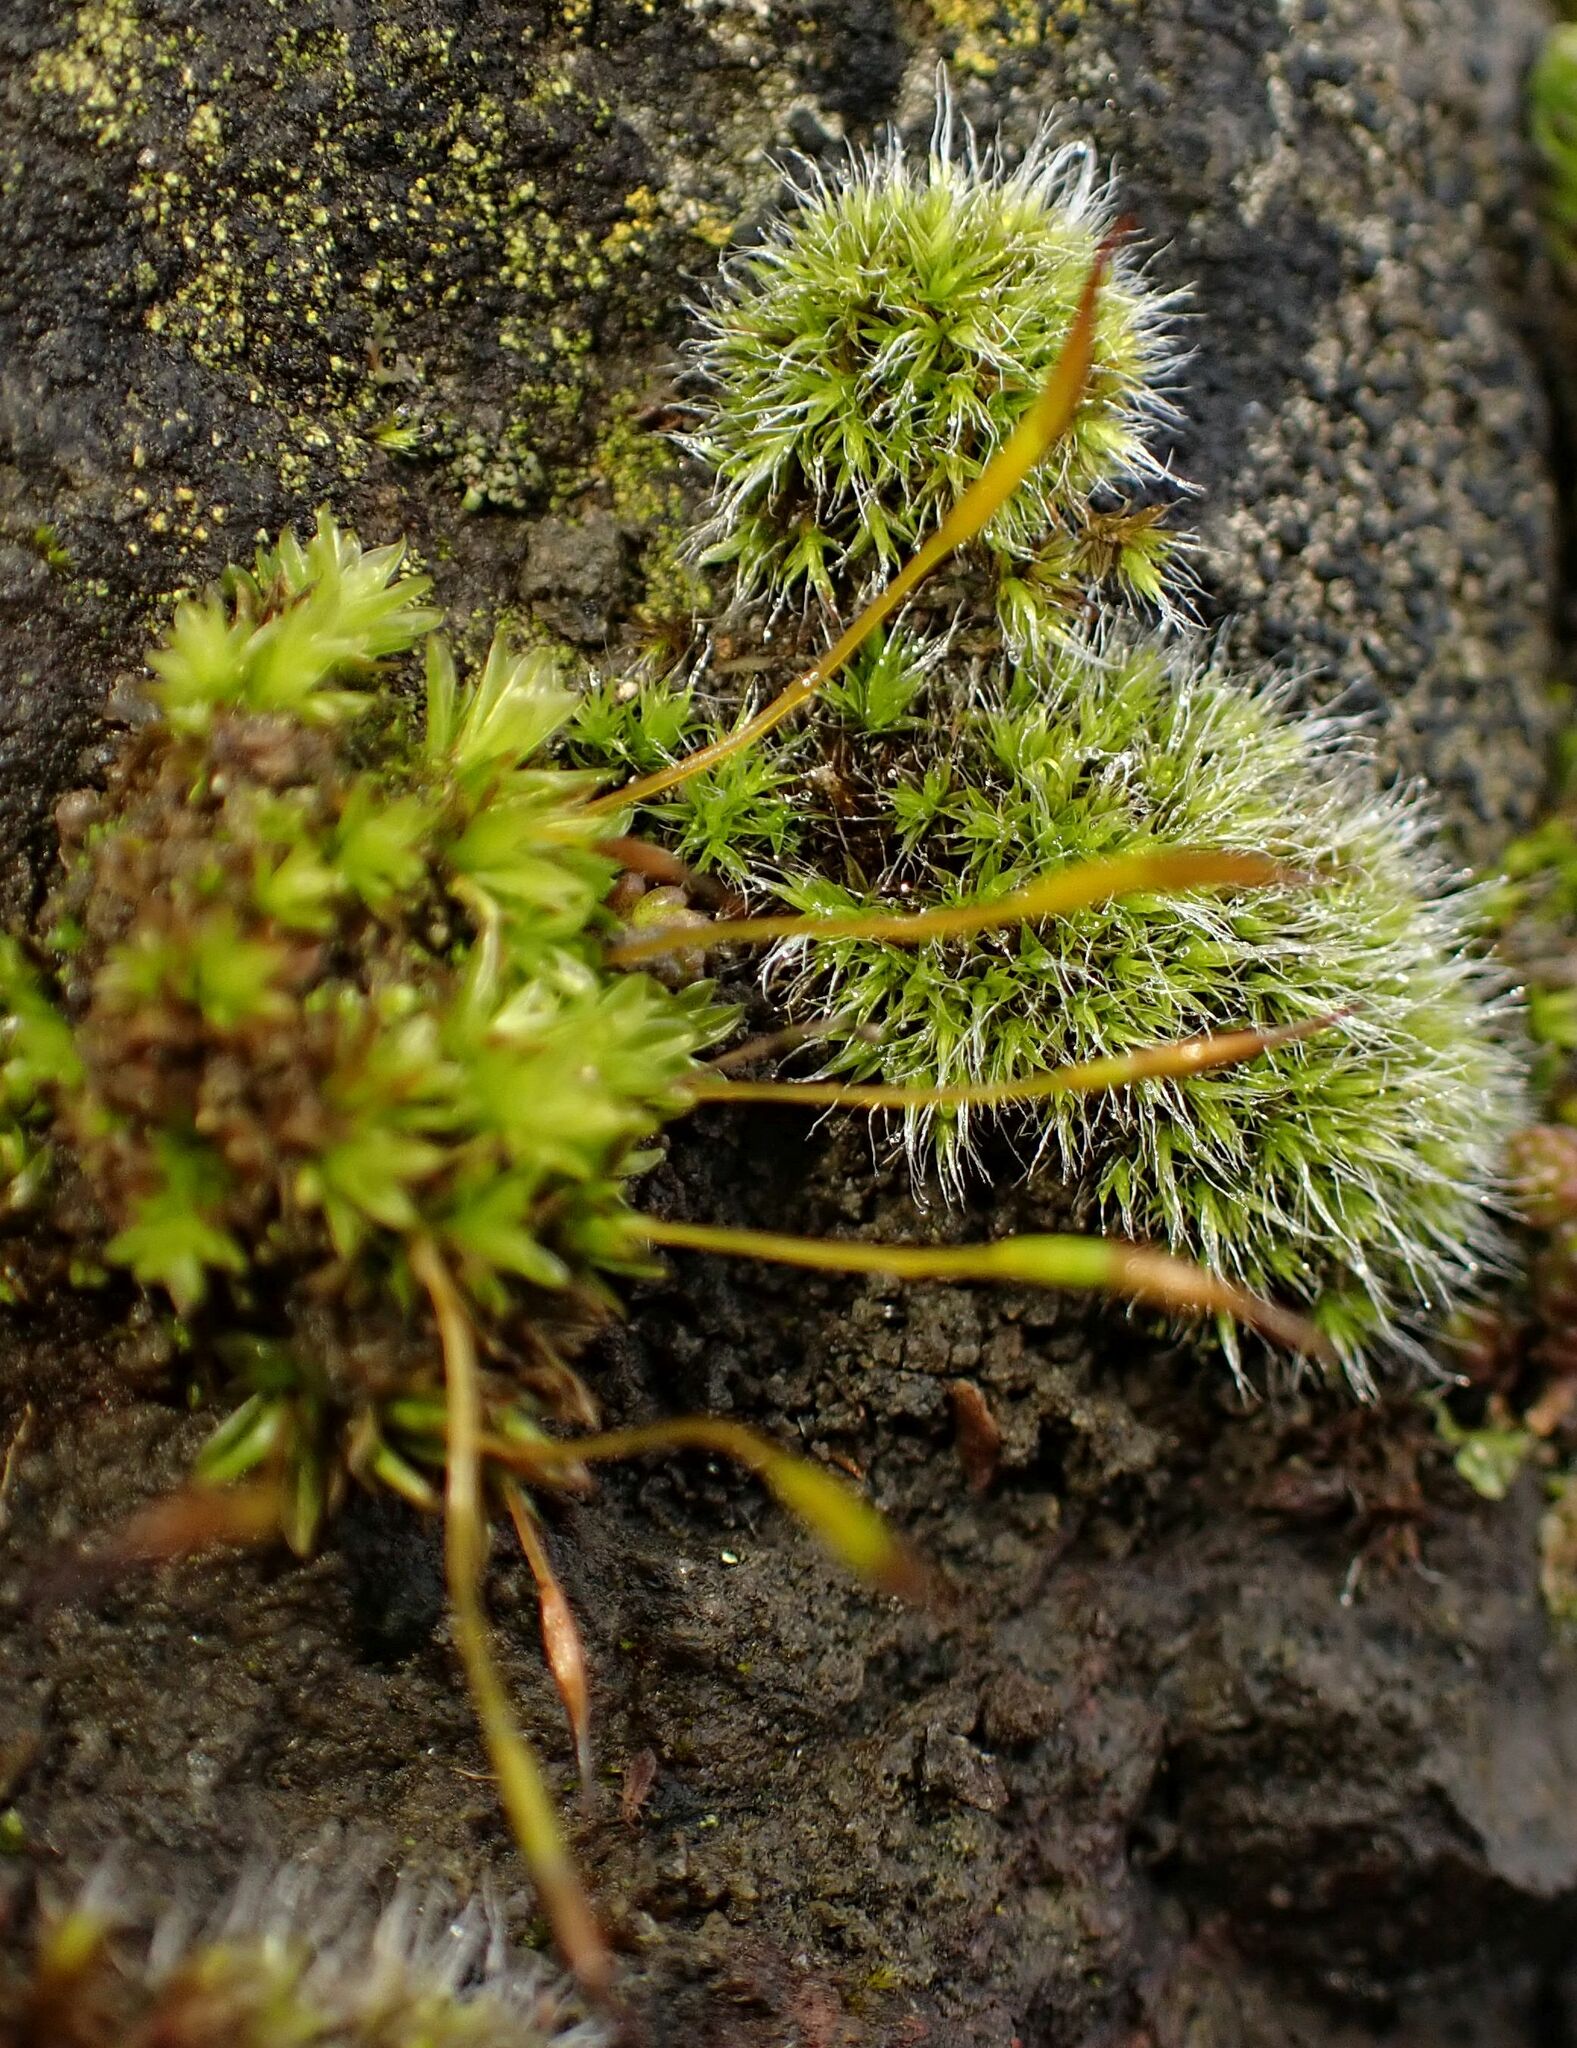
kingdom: Plantae
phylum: Bryophyta
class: Bryopsida
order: Pottiales
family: Pottiaceae
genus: Tortula
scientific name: Tortula muralis
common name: Wall screw-moss
